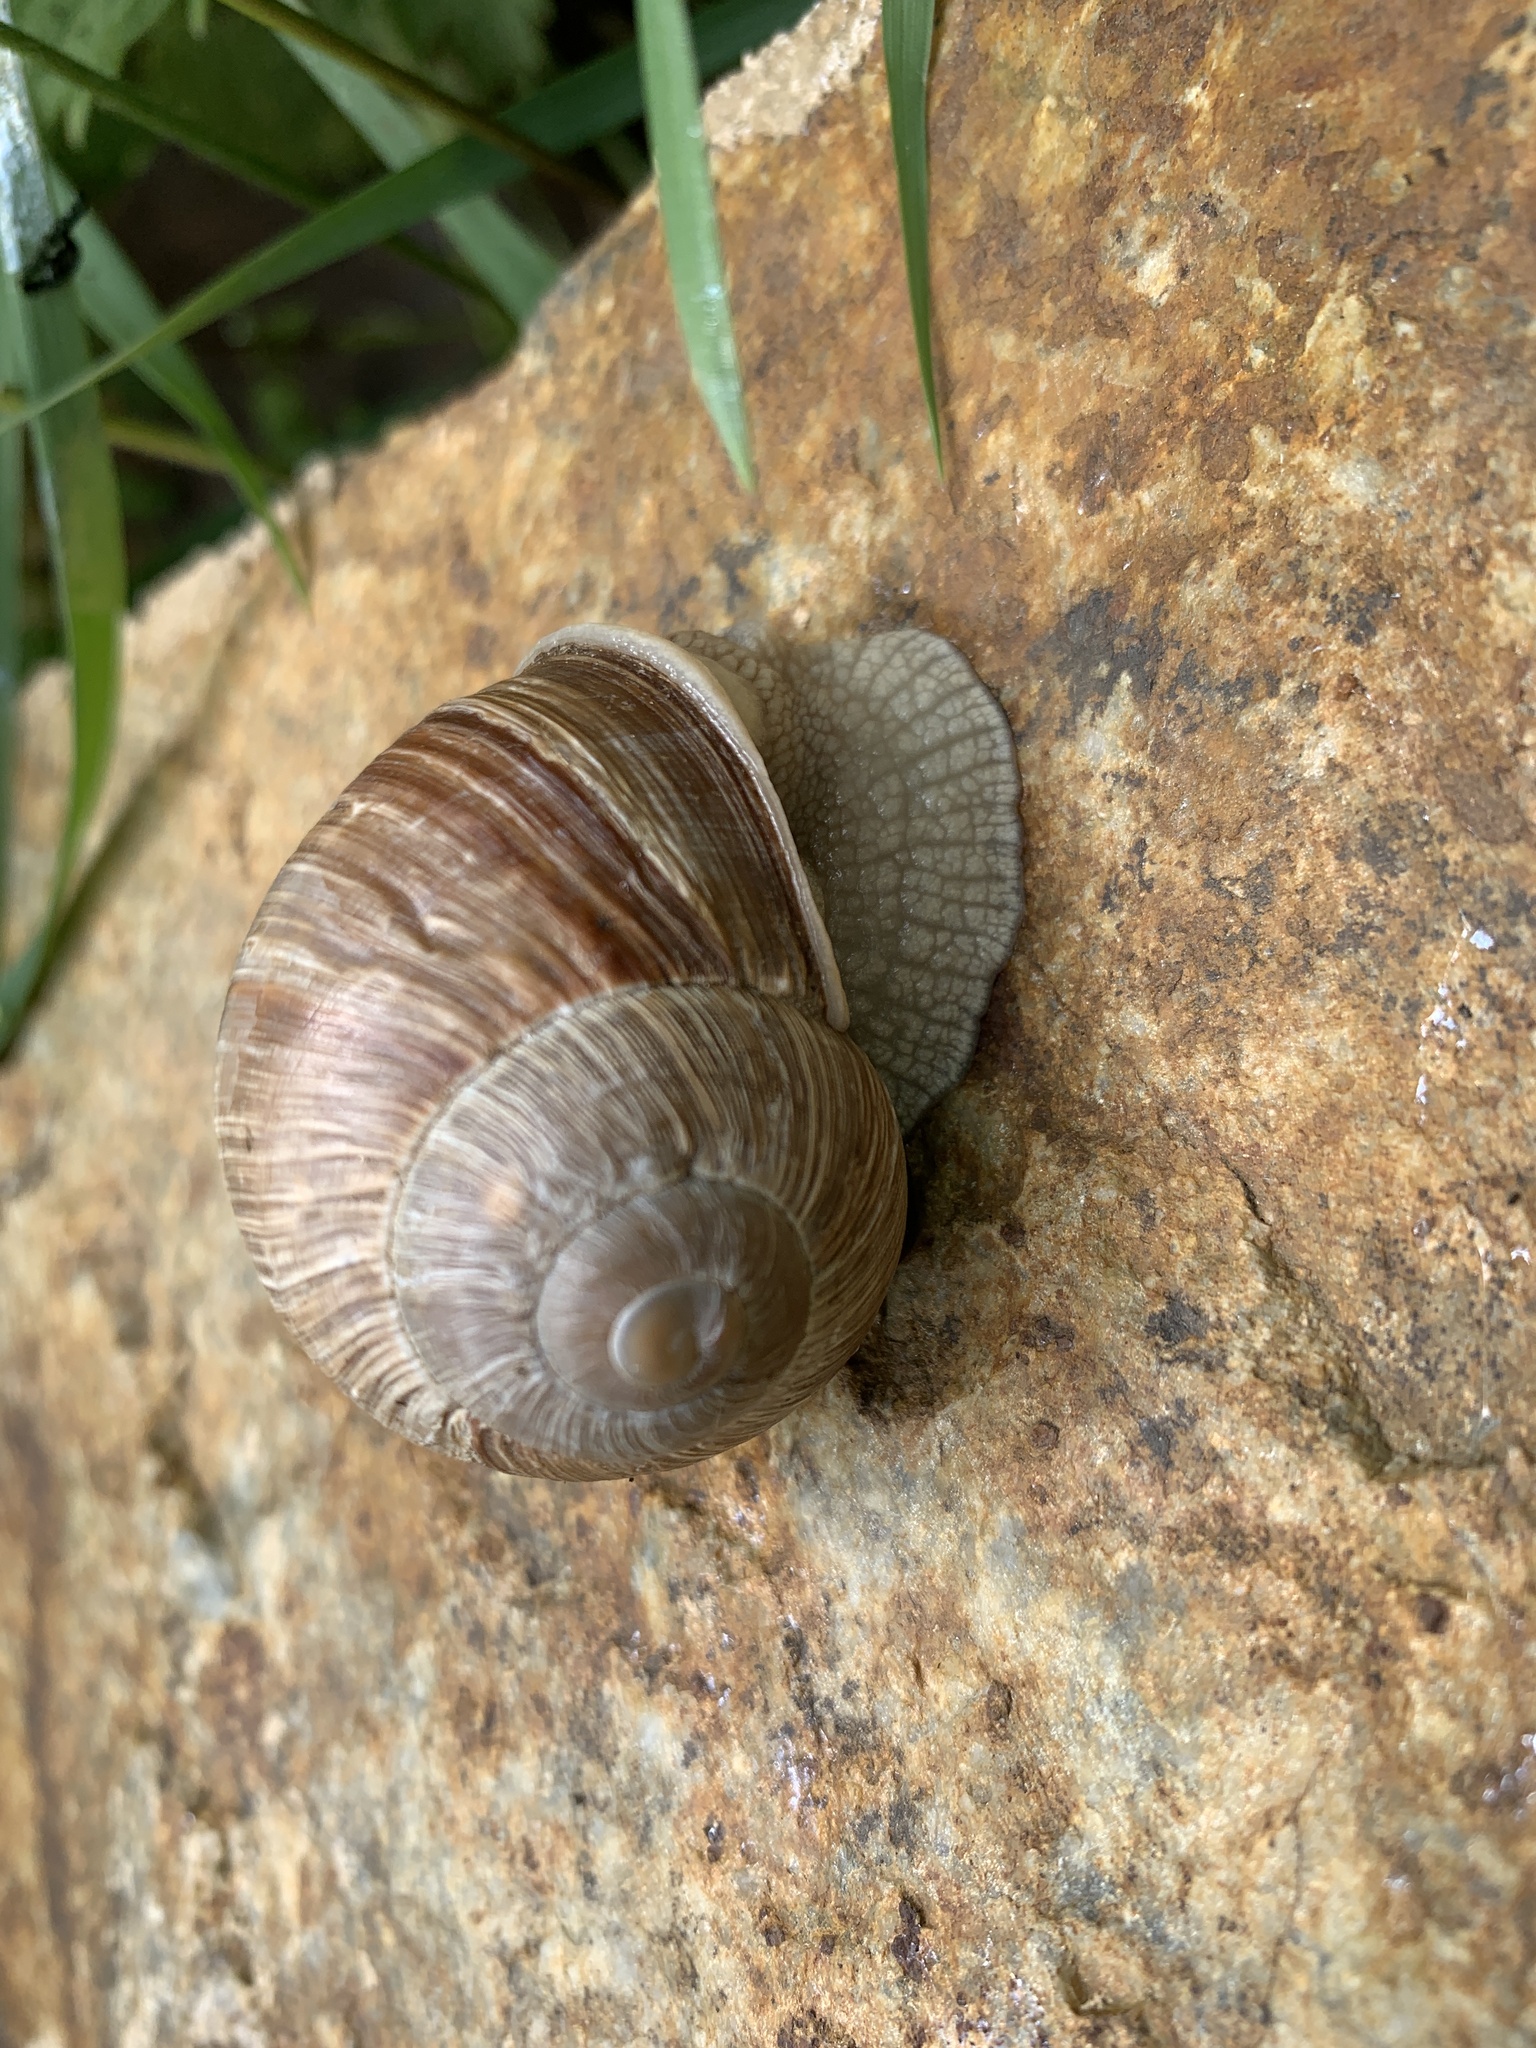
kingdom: Animalia
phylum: Mollusca
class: Gastropoda
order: Stylommatophora
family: Helicidae
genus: Helix
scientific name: Helix pomatia
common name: Roman snail
